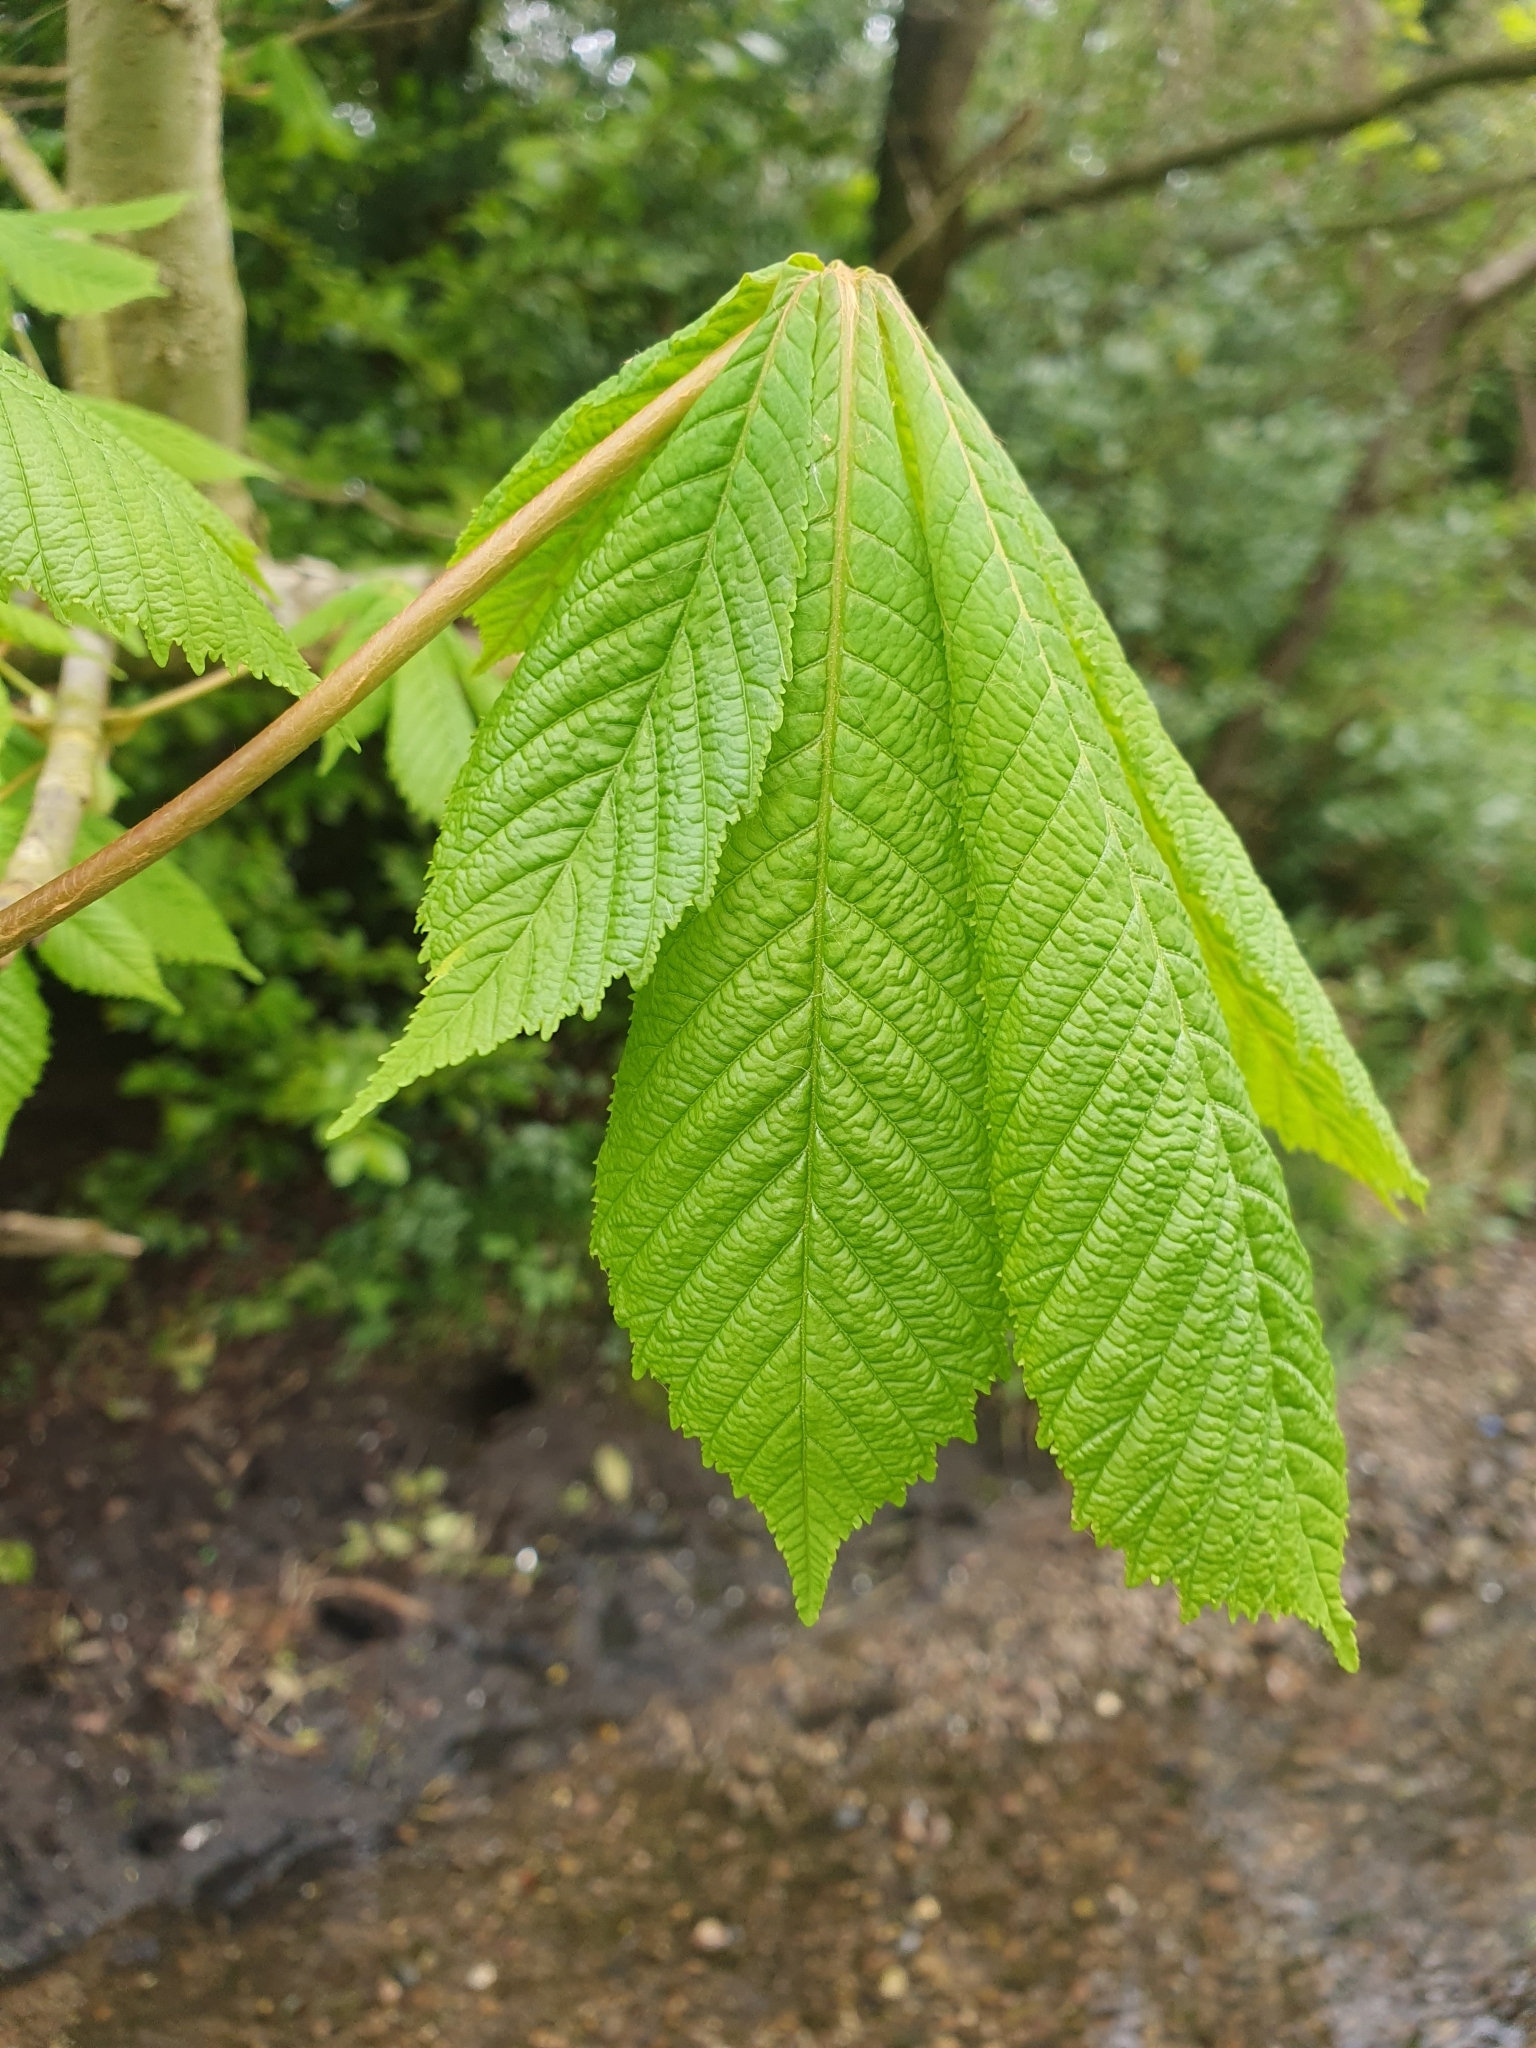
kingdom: Plantae
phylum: Tracheophyta
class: Magnoliopsida
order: Sapindales
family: Sapindaceae
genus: Aesculus
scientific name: Aesculus hippocastanum
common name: Horse-chestnut
